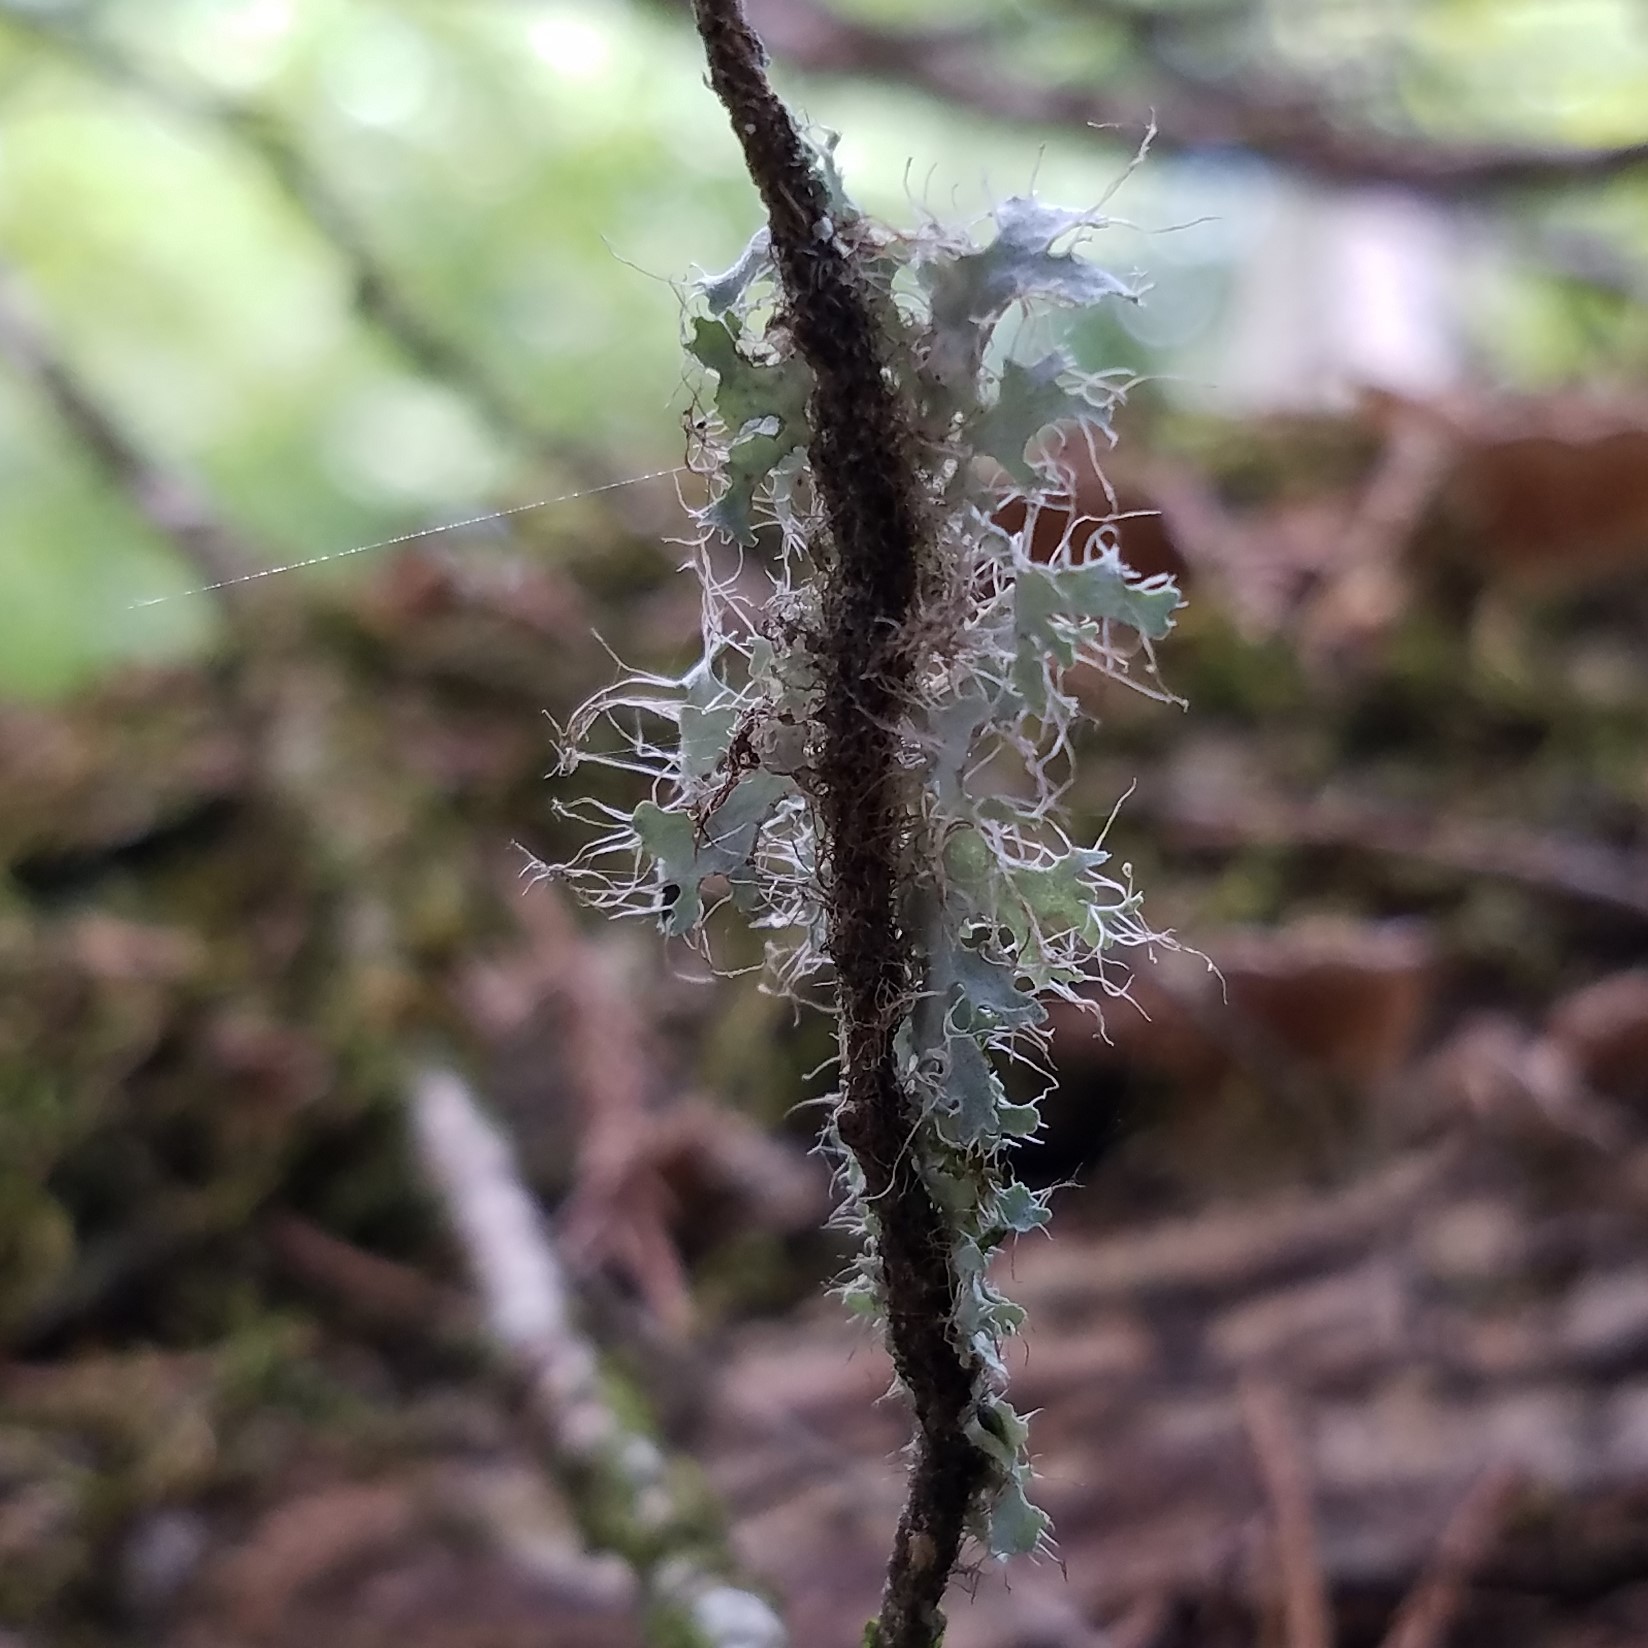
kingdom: Fungi
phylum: Ascomycota
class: Lecanoromycetes
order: Caliciales
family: Physciaceae
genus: Heterodermia
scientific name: Heterodermia echinata
